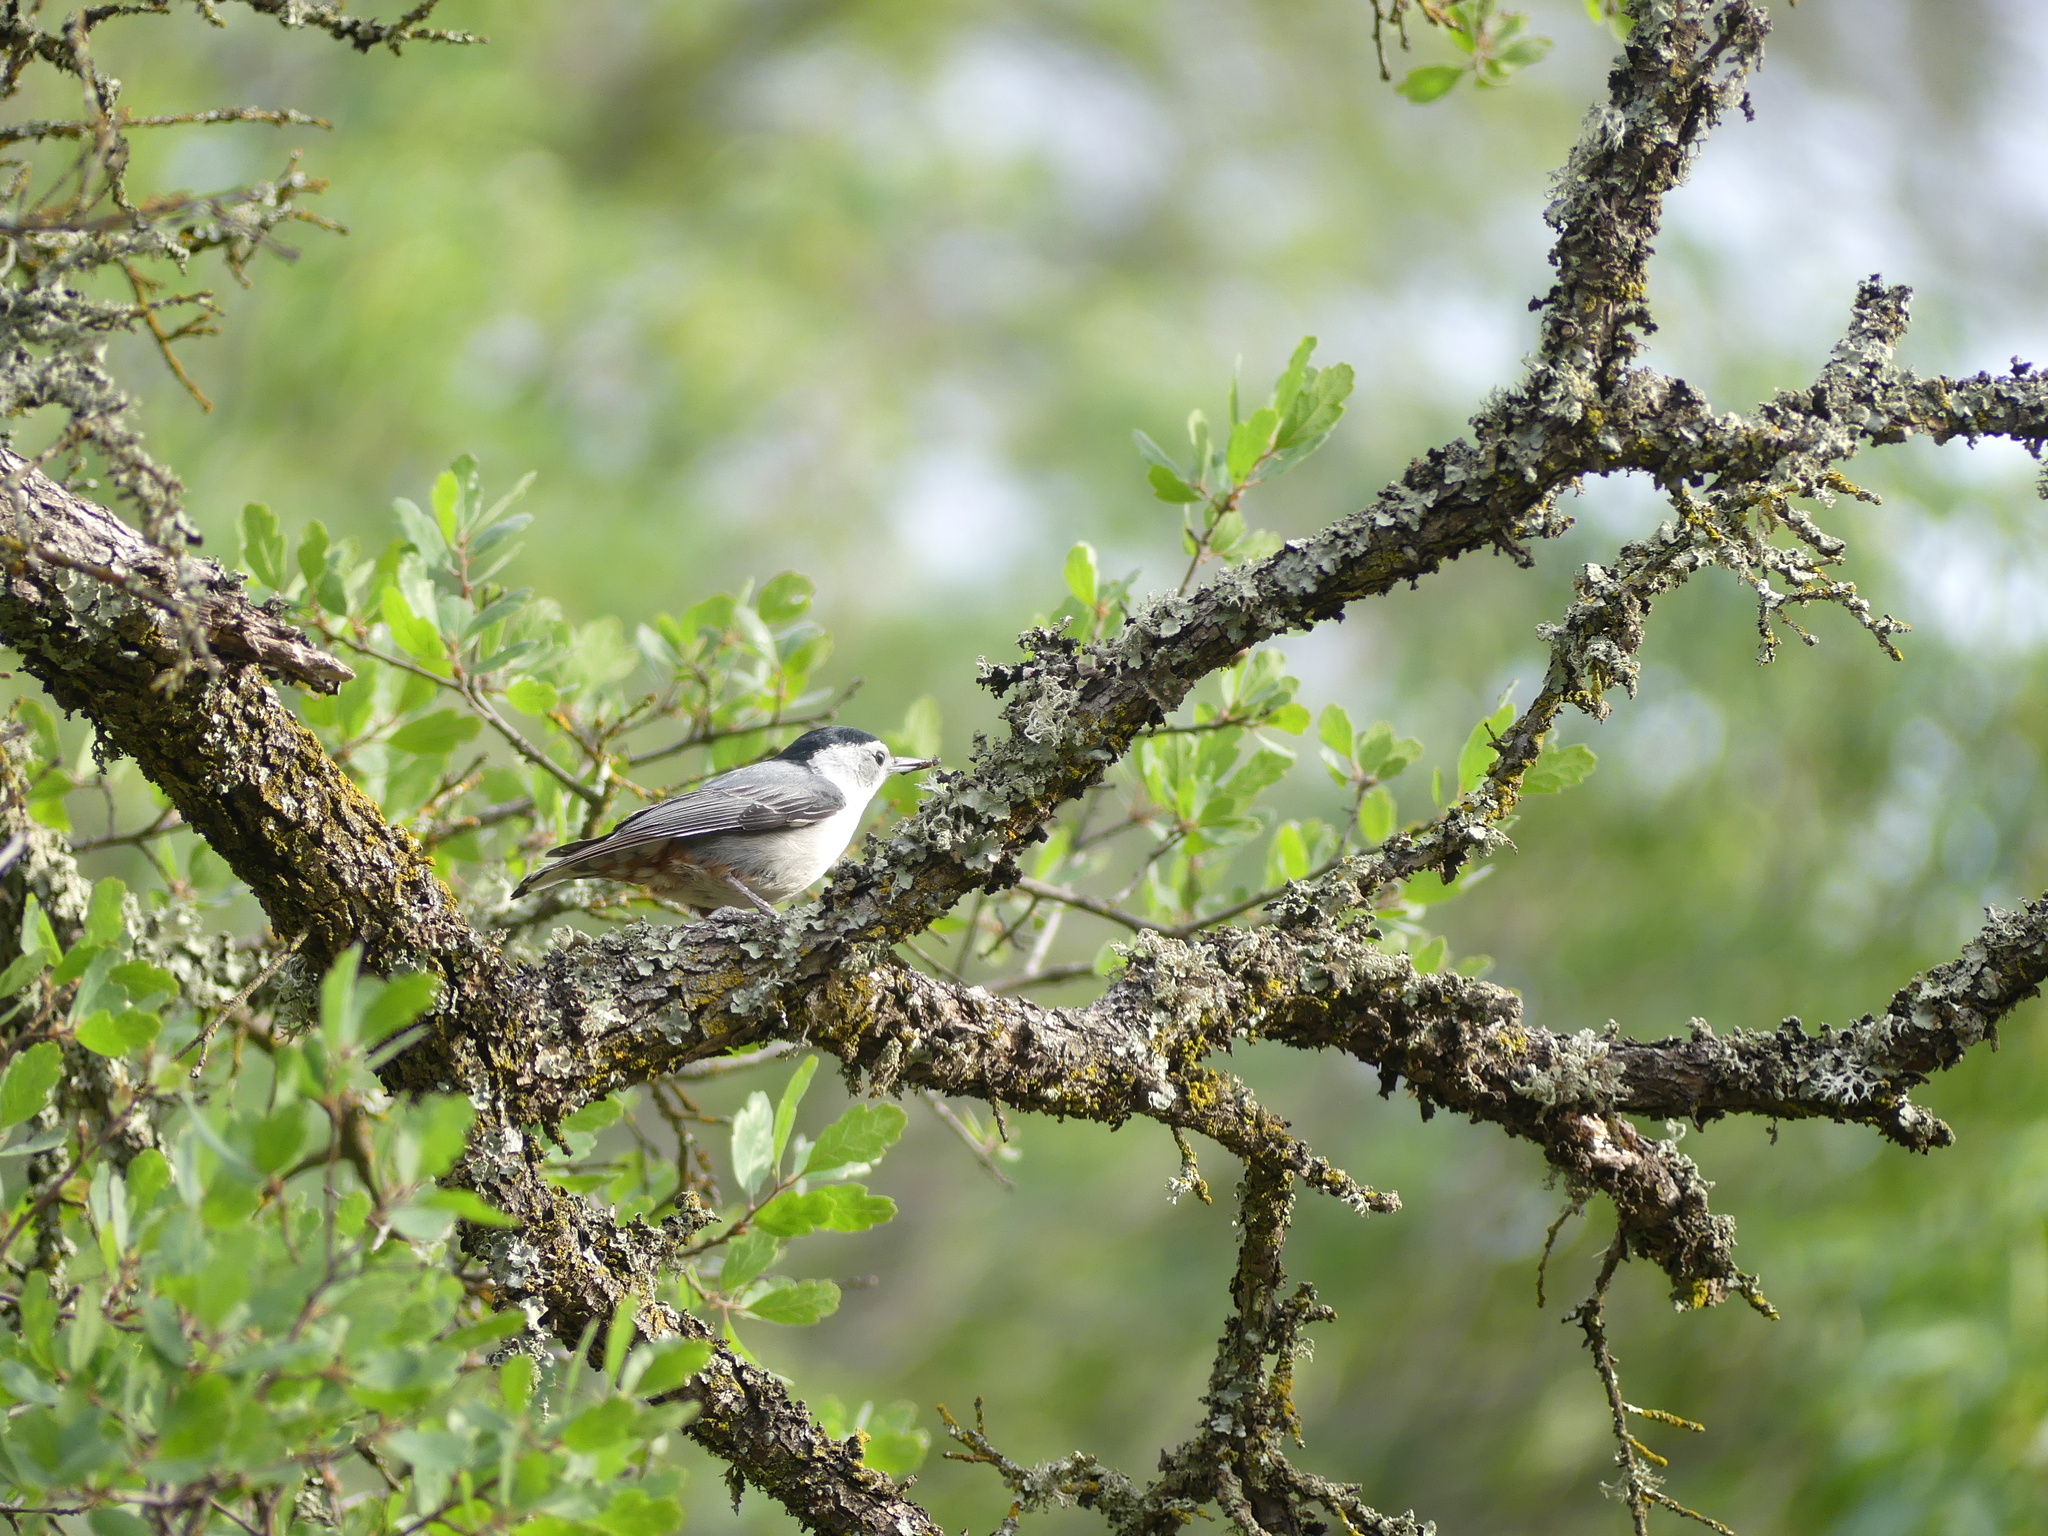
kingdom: Animalia
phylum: Chordata
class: Aves
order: Passeriformes
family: Sittidae
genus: Sitta
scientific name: Sitta carolinensis
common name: White-breasted nuthatch
